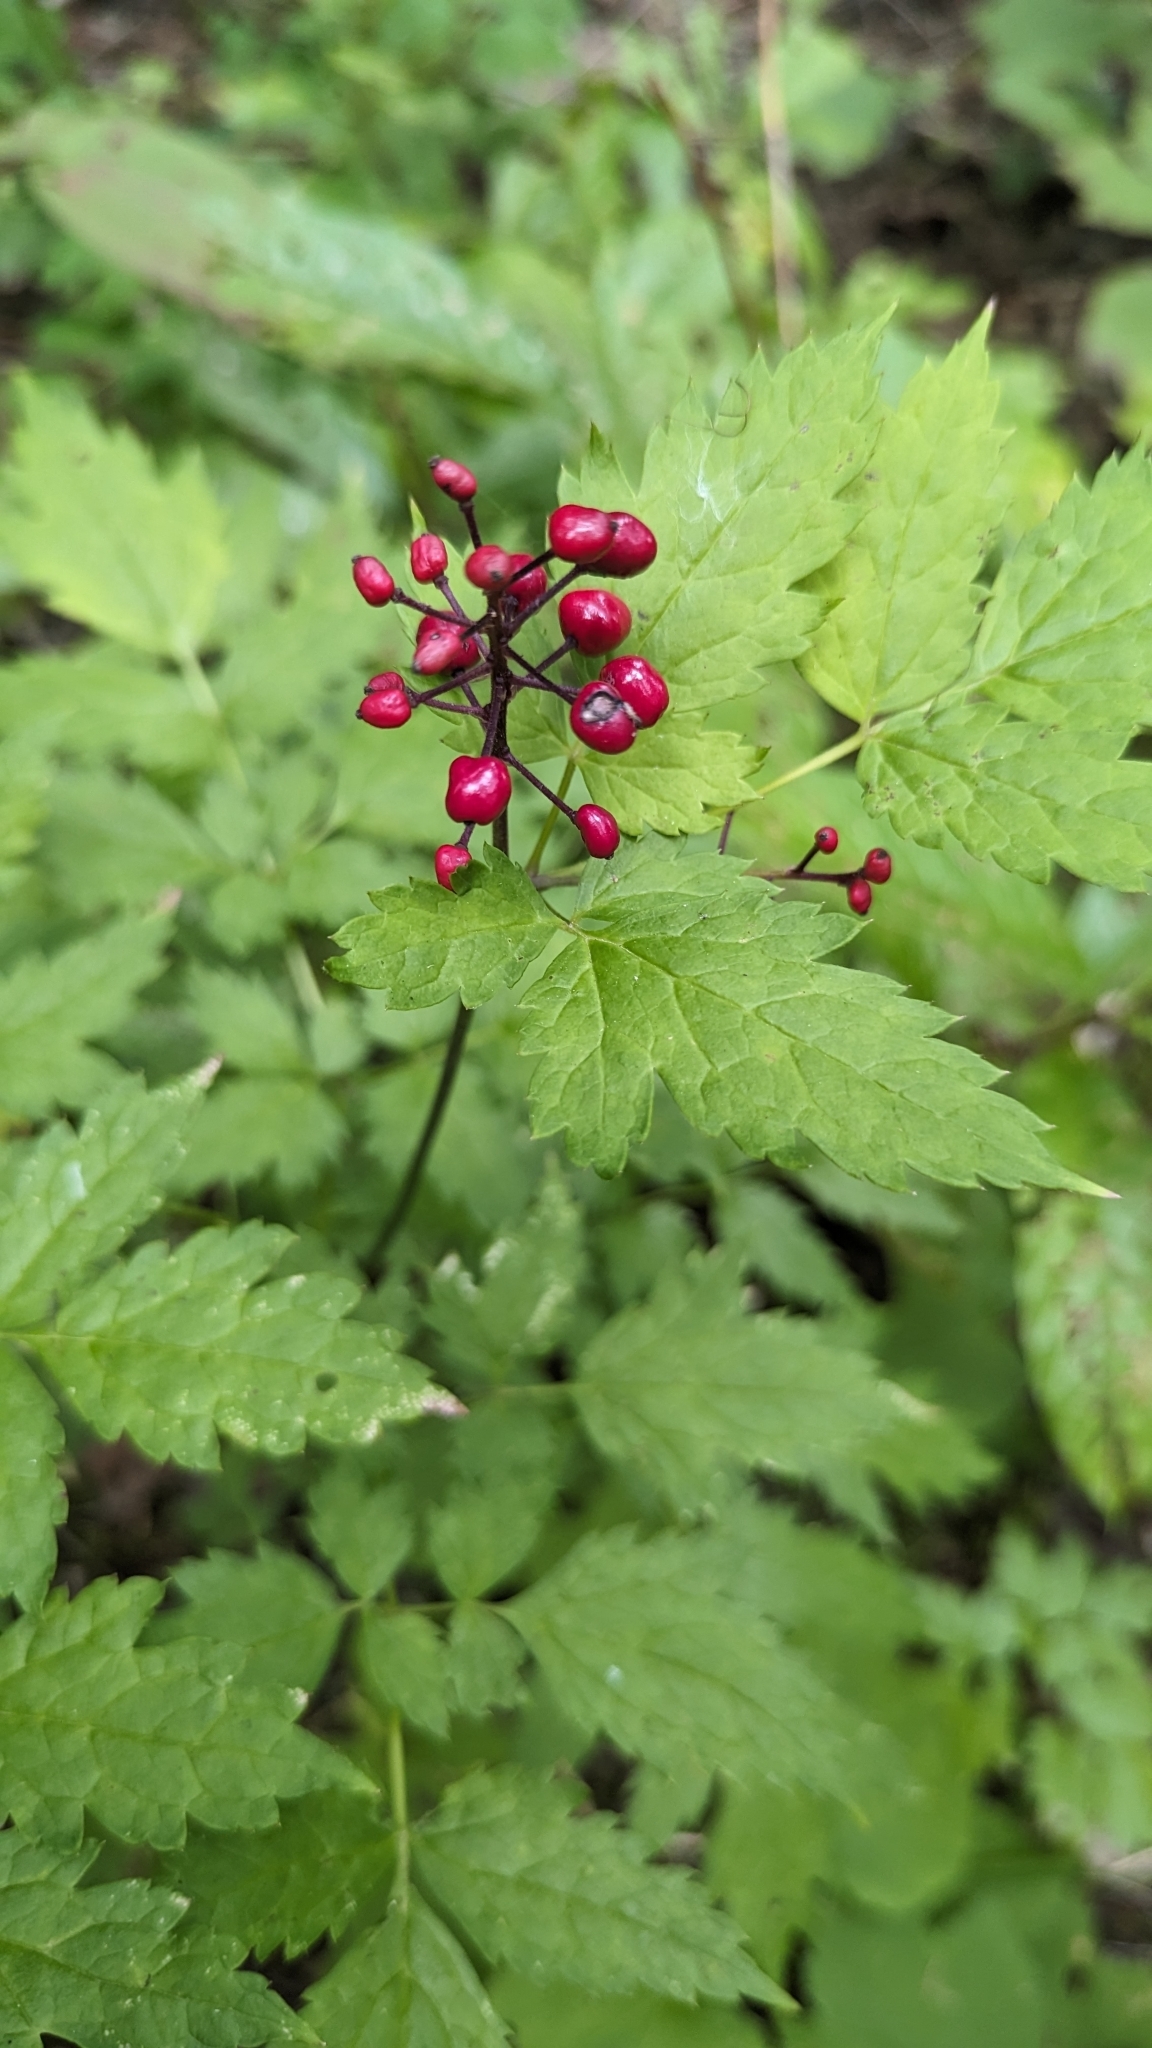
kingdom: Plantae
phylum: Tracheophyta
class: Magnoliopsida
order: Ranunculales
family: Ranunculaceae
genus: Actaea
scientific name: Actaea rubra
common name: Red baneberry
